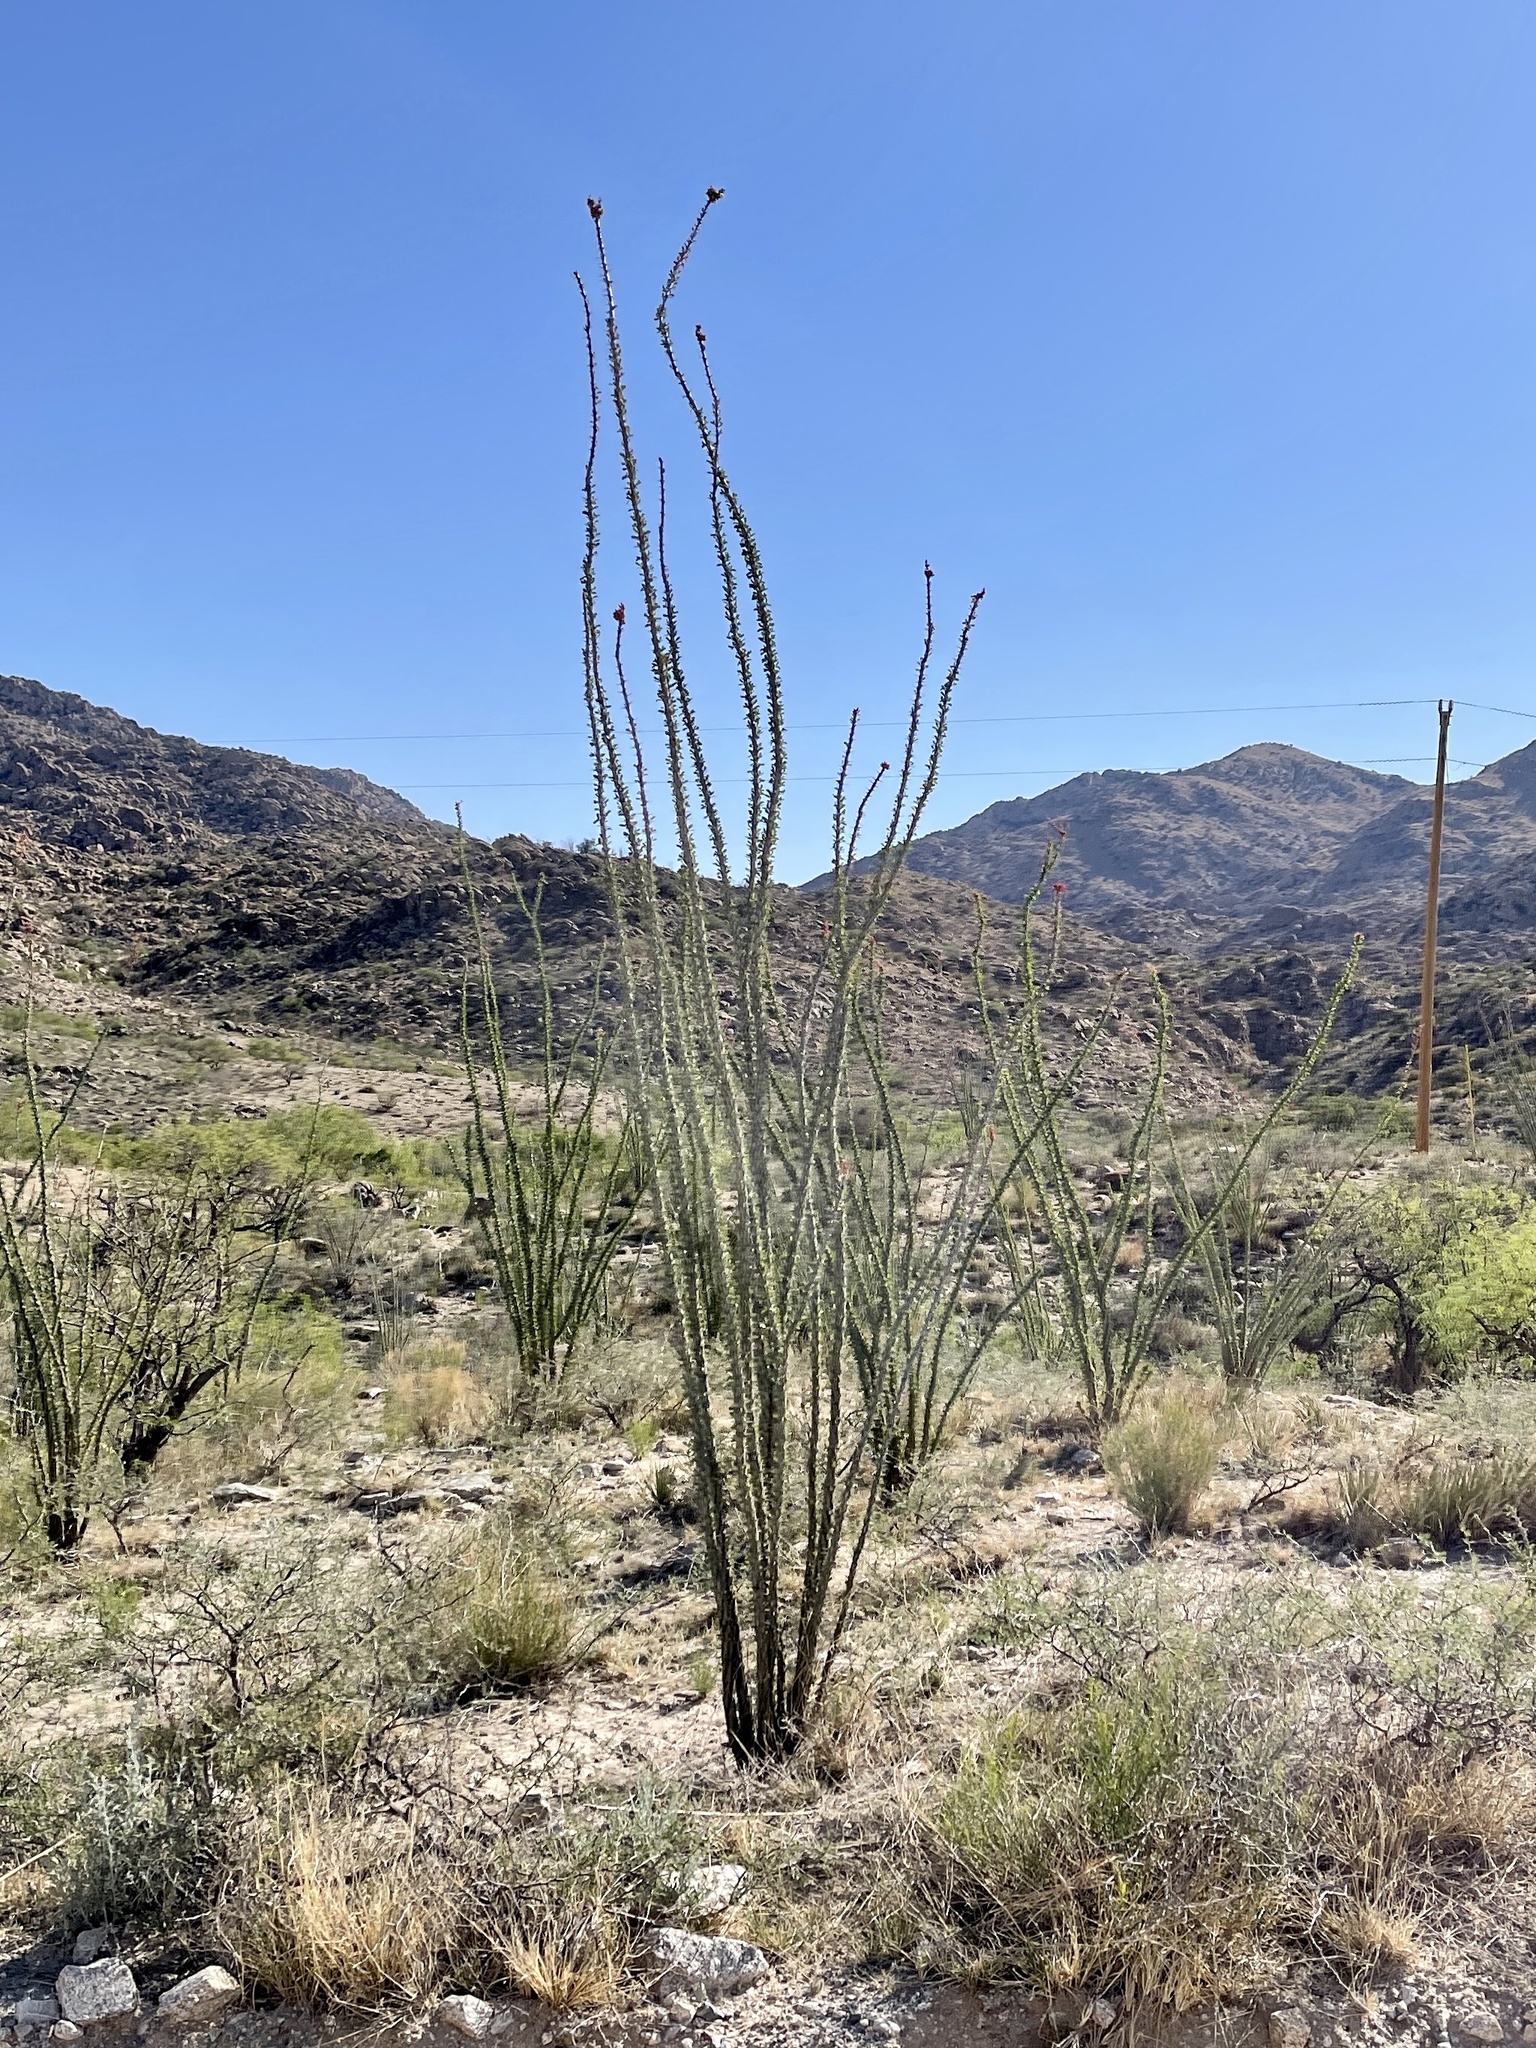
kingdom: Plantae
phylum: Tracheophyta
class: Magnoliopsida
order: Ericales
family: Fouquieriaceae
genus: Fouquieria
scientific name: Fouquieria splendens
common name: Vine-cactus
